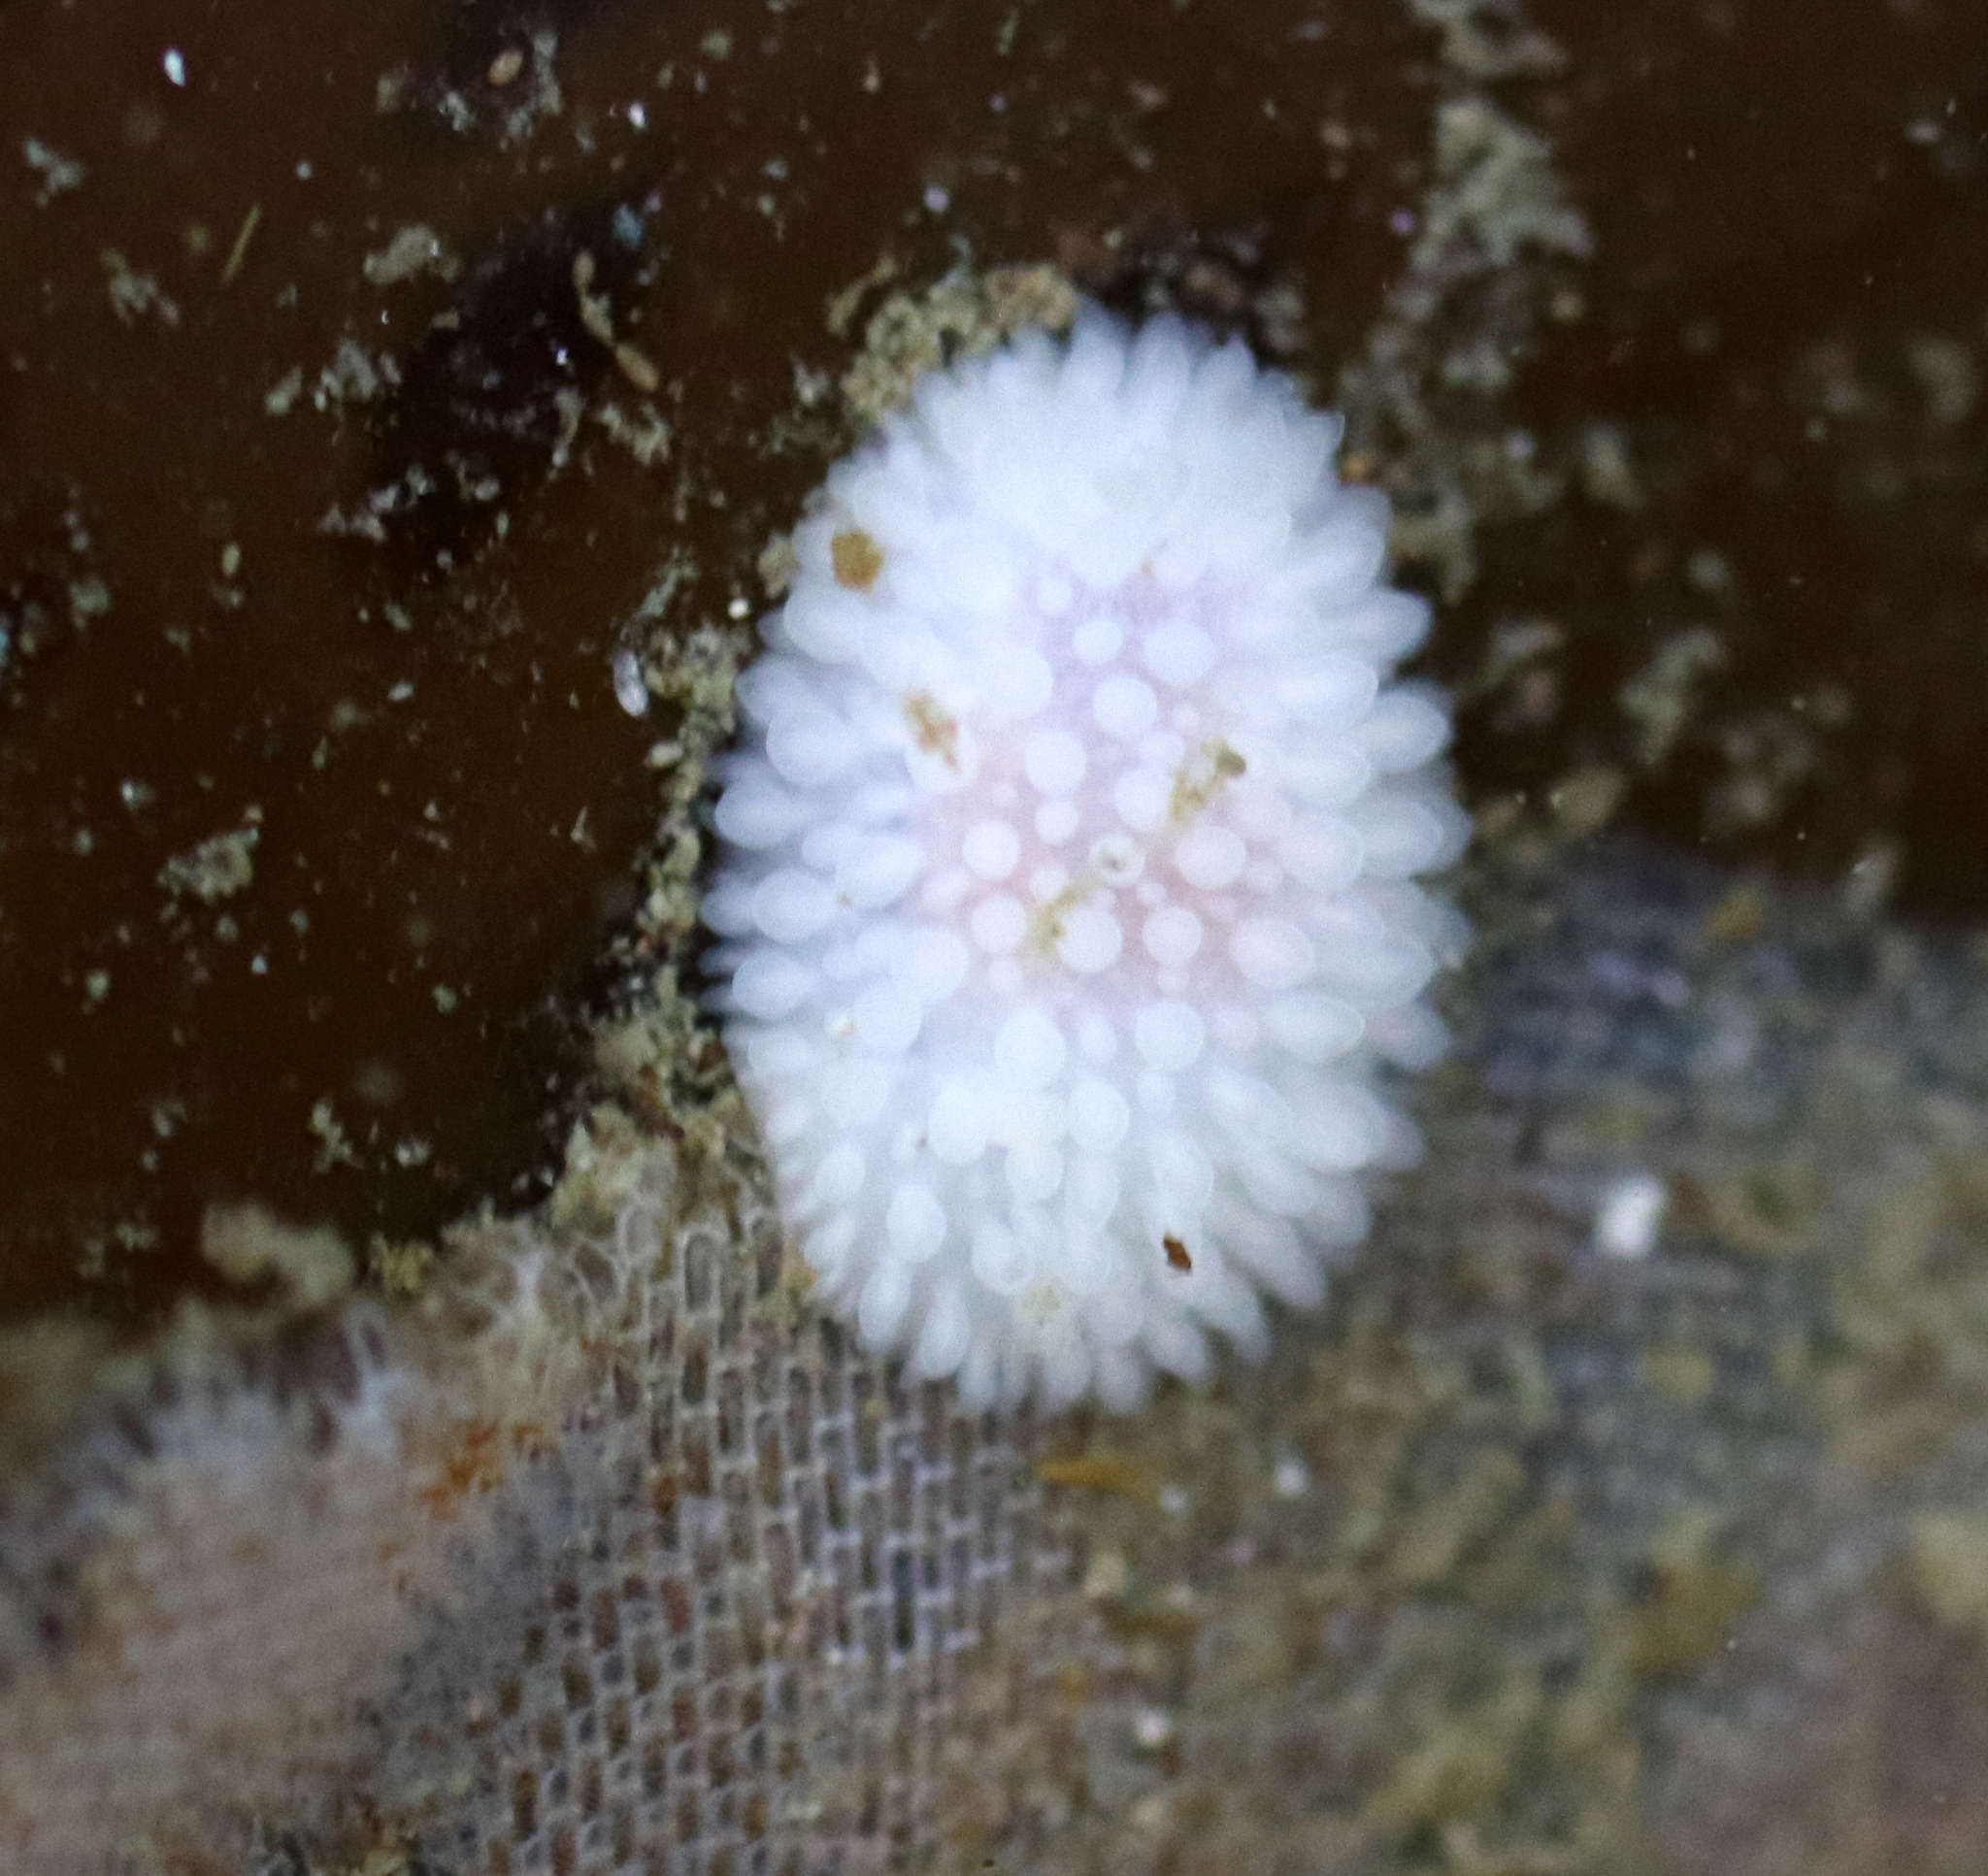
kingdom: Animalia
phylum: Mollusca
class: Gastropoda
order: Nudibranchia
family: Onchidorididae
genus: Adalaria
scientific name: Adalaria proxima
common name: False doris
